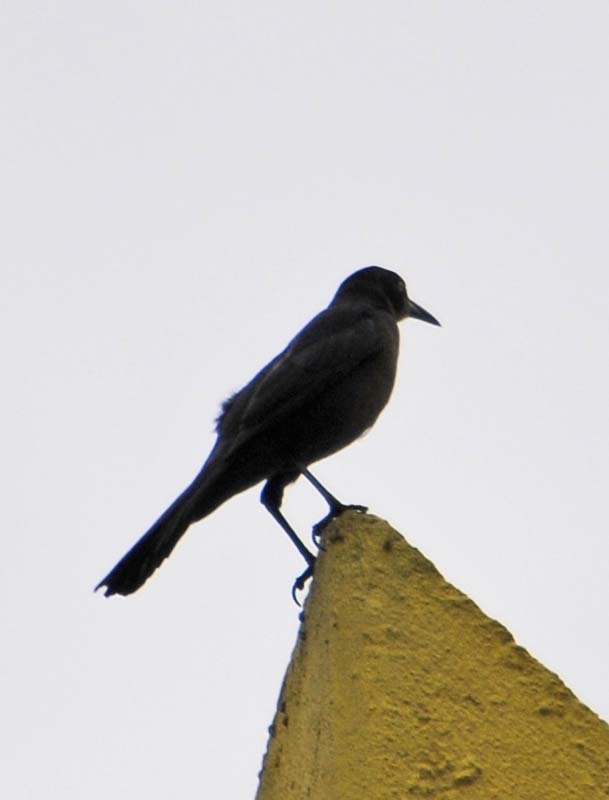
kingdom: Animalia
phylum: Chordata
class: Aves
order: Passeriformes
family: Icteridae
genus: Quiscalus
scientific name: Quiscalus mexicanus
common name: Great-tailed grackle
